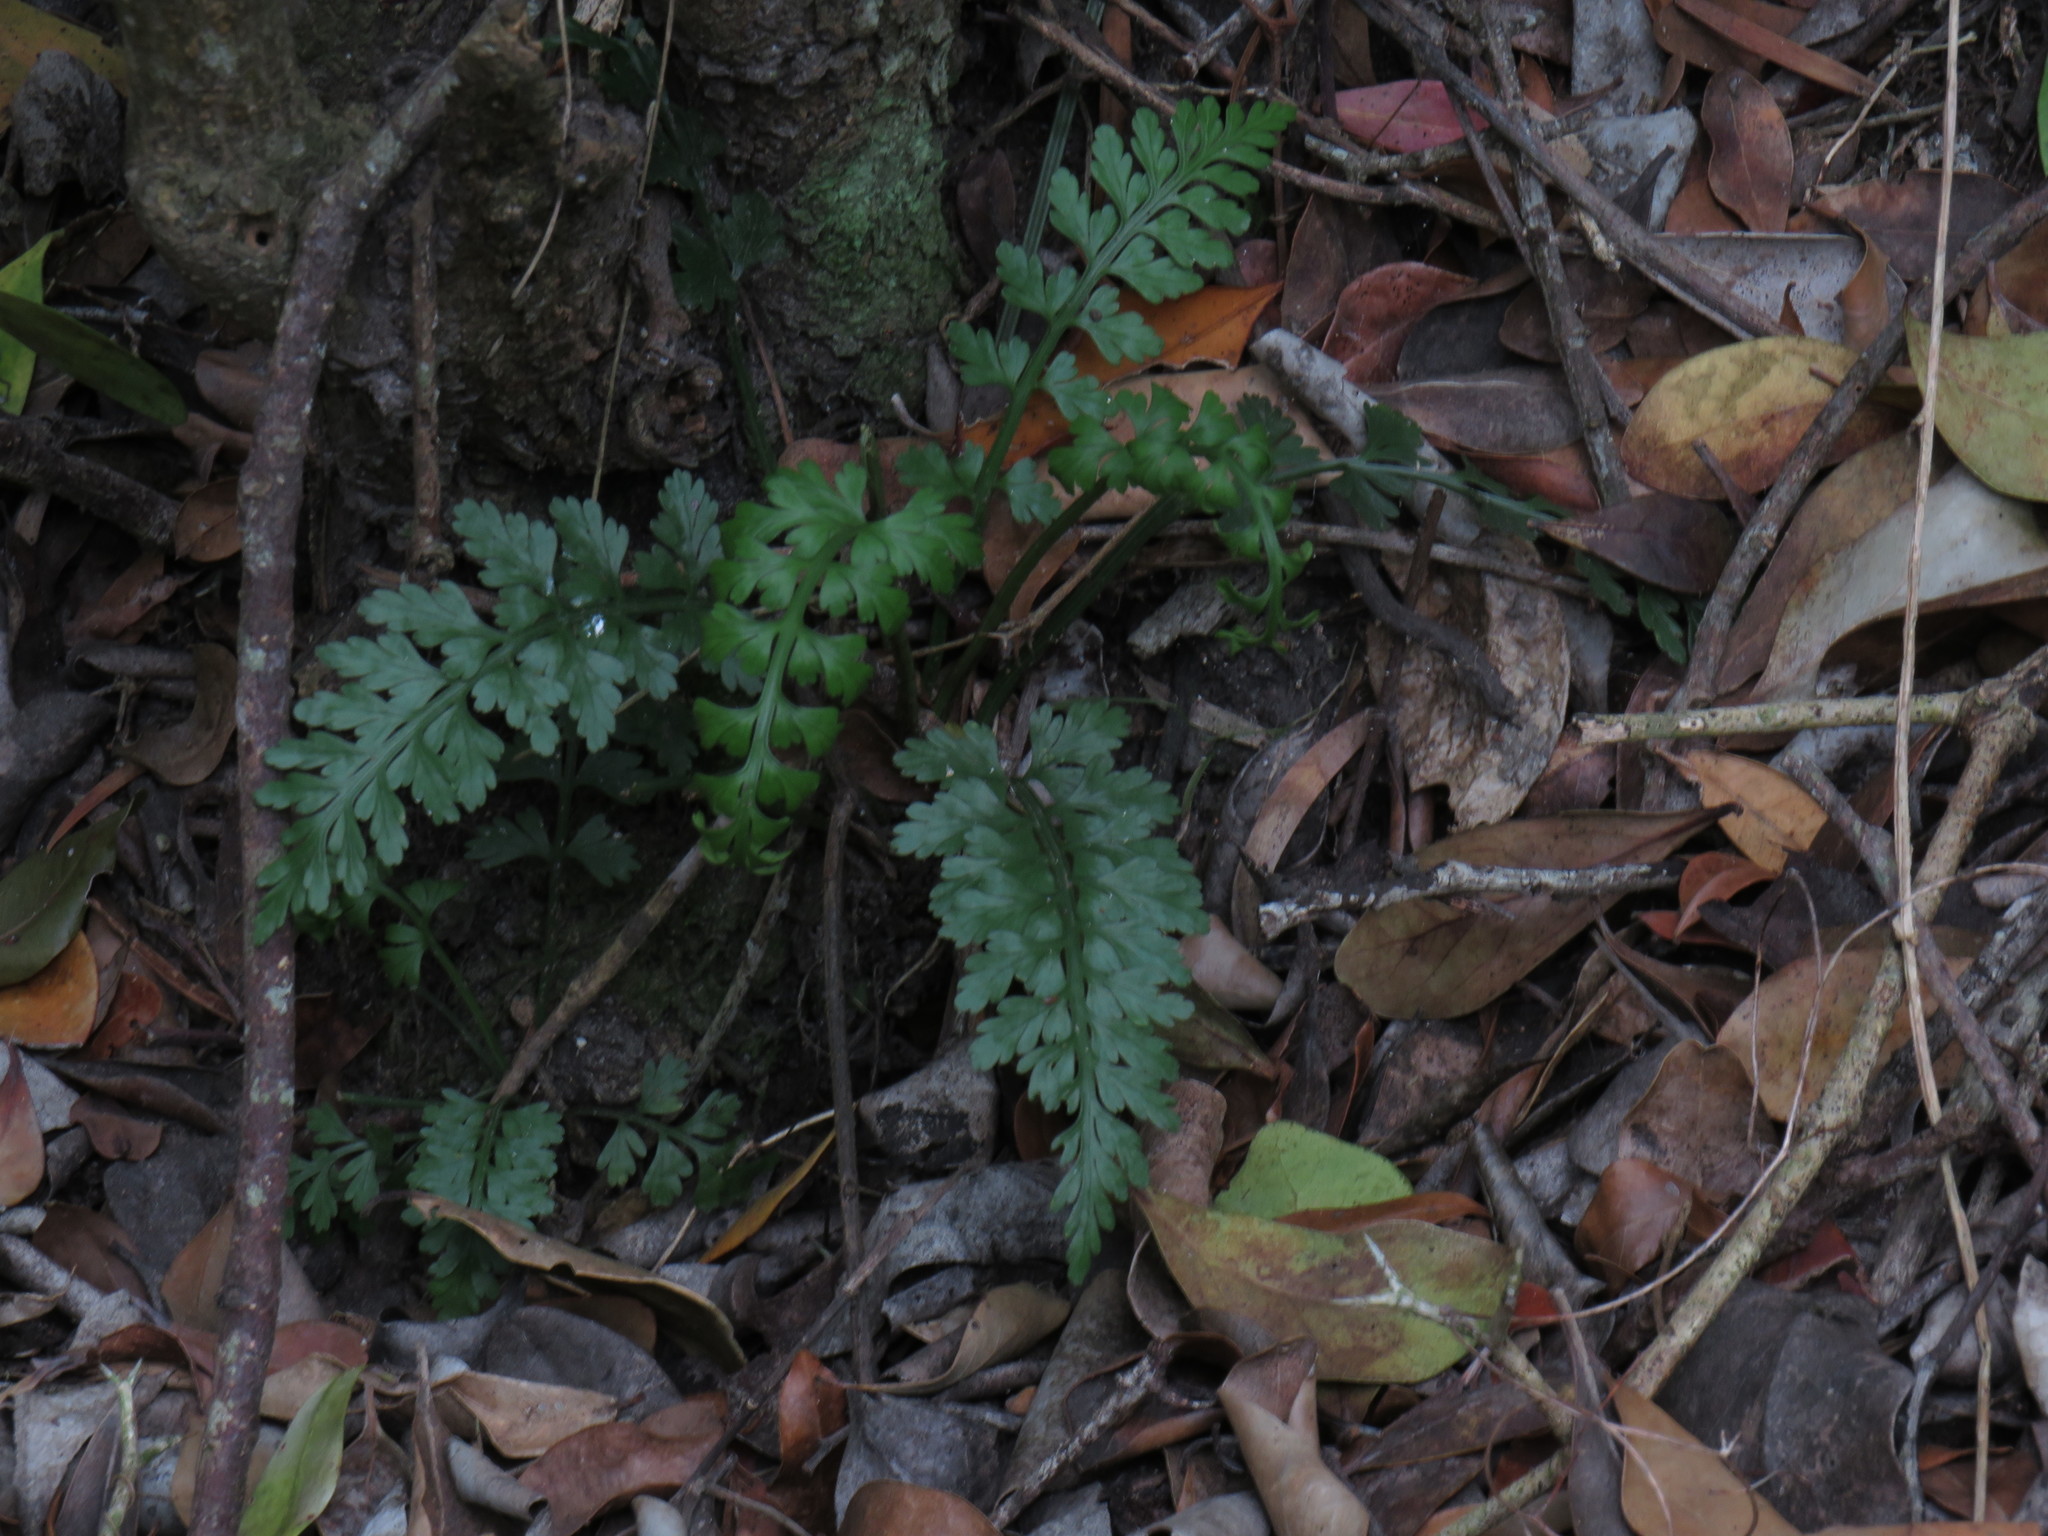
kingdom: Plantae
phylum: Tracheophyta
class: Polypodiopsida
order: Polypodiales
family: Aspleniaceae
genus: Asplenium
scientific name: Asplenium rutifolium
